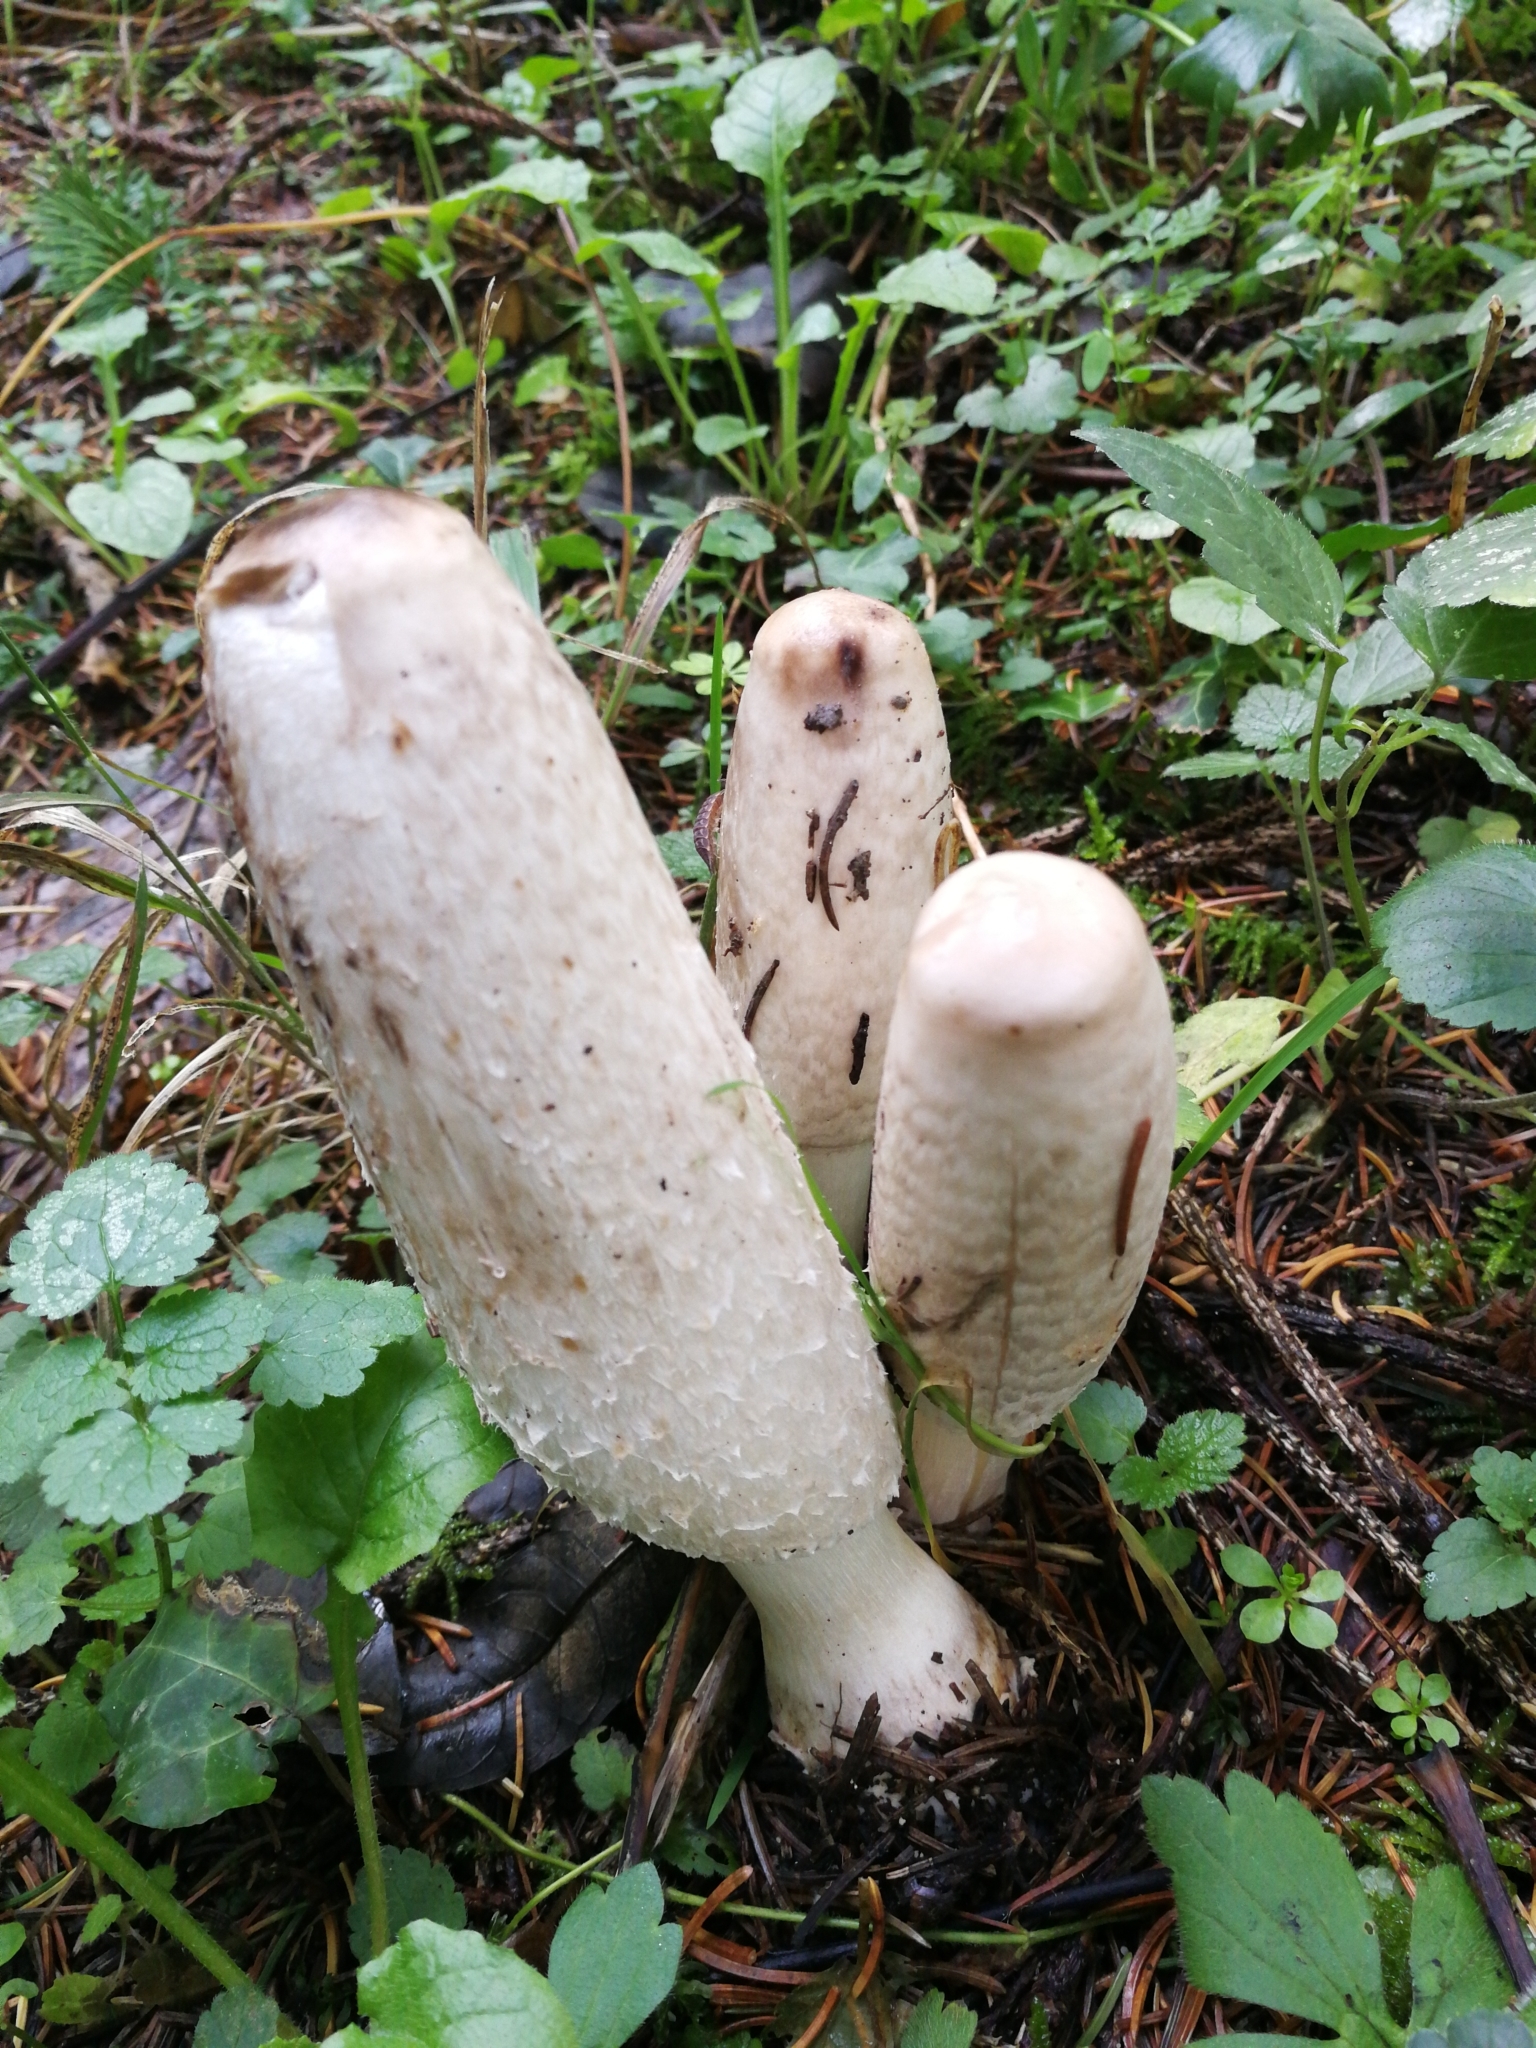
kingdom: Fungi
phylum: Basidiomycota
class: Agaricomycetes
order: Agaricales
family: Agaricaceae
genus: Coprinus
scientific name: Coprinus comatus
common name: Lawyer's wig
